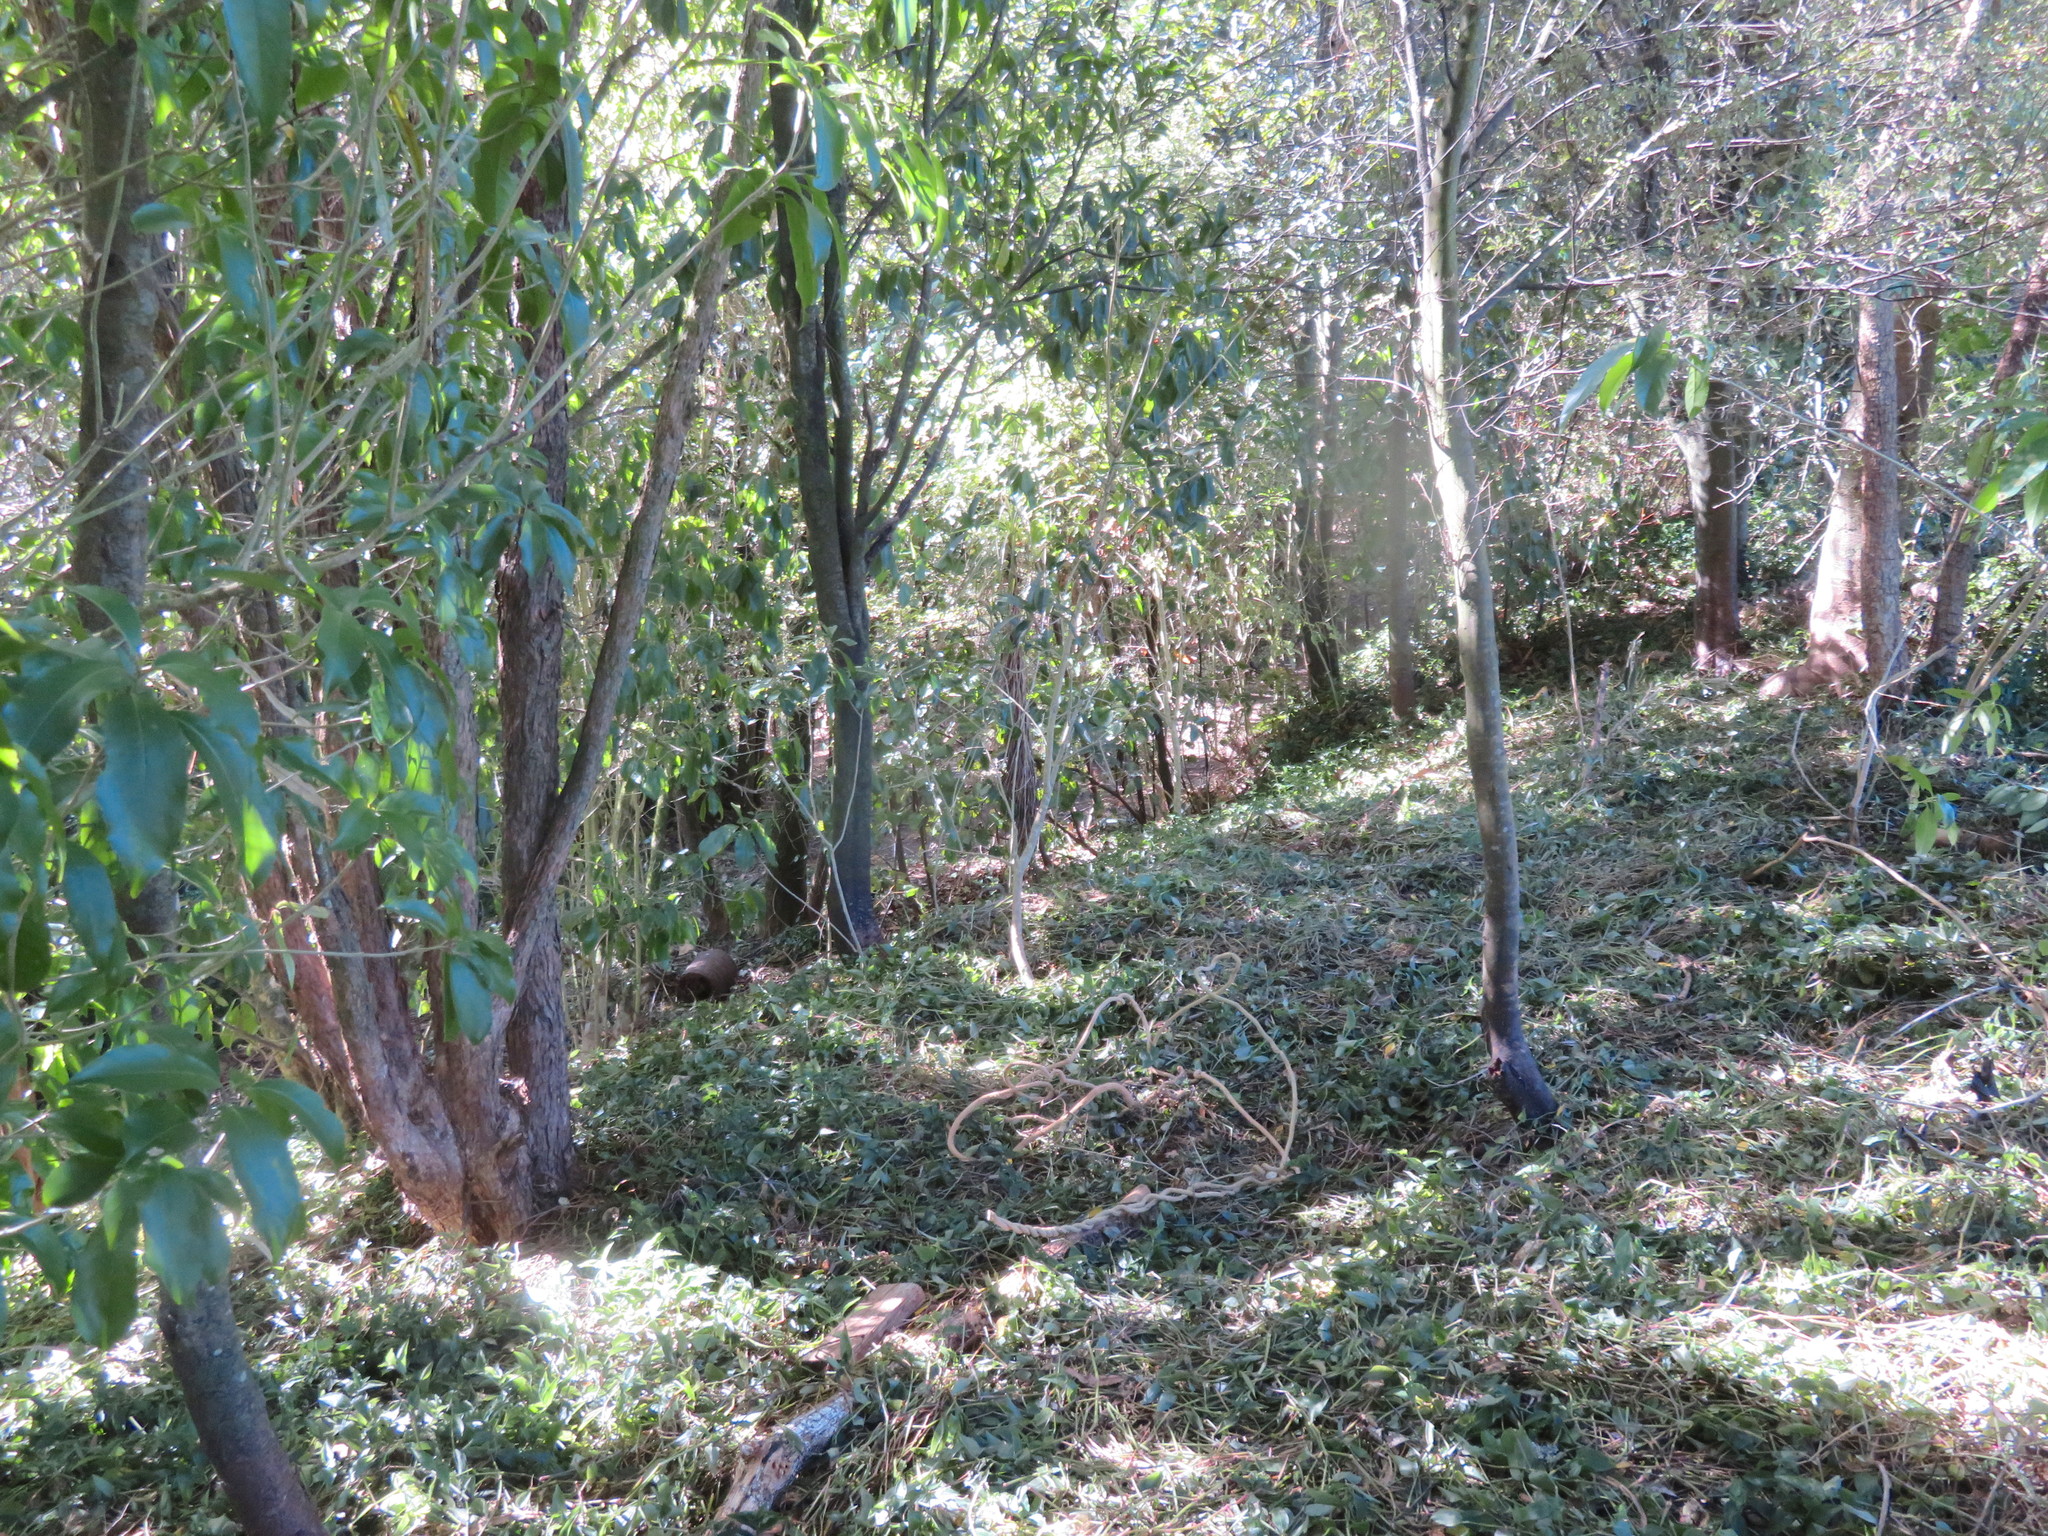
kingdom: Plantae
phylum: Tracheophyta
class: Liliopsida
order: Commelinales
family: Commelinaceae
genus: Tradescantia
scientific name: Tradescantia fluminensis
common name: Wandering-jew
